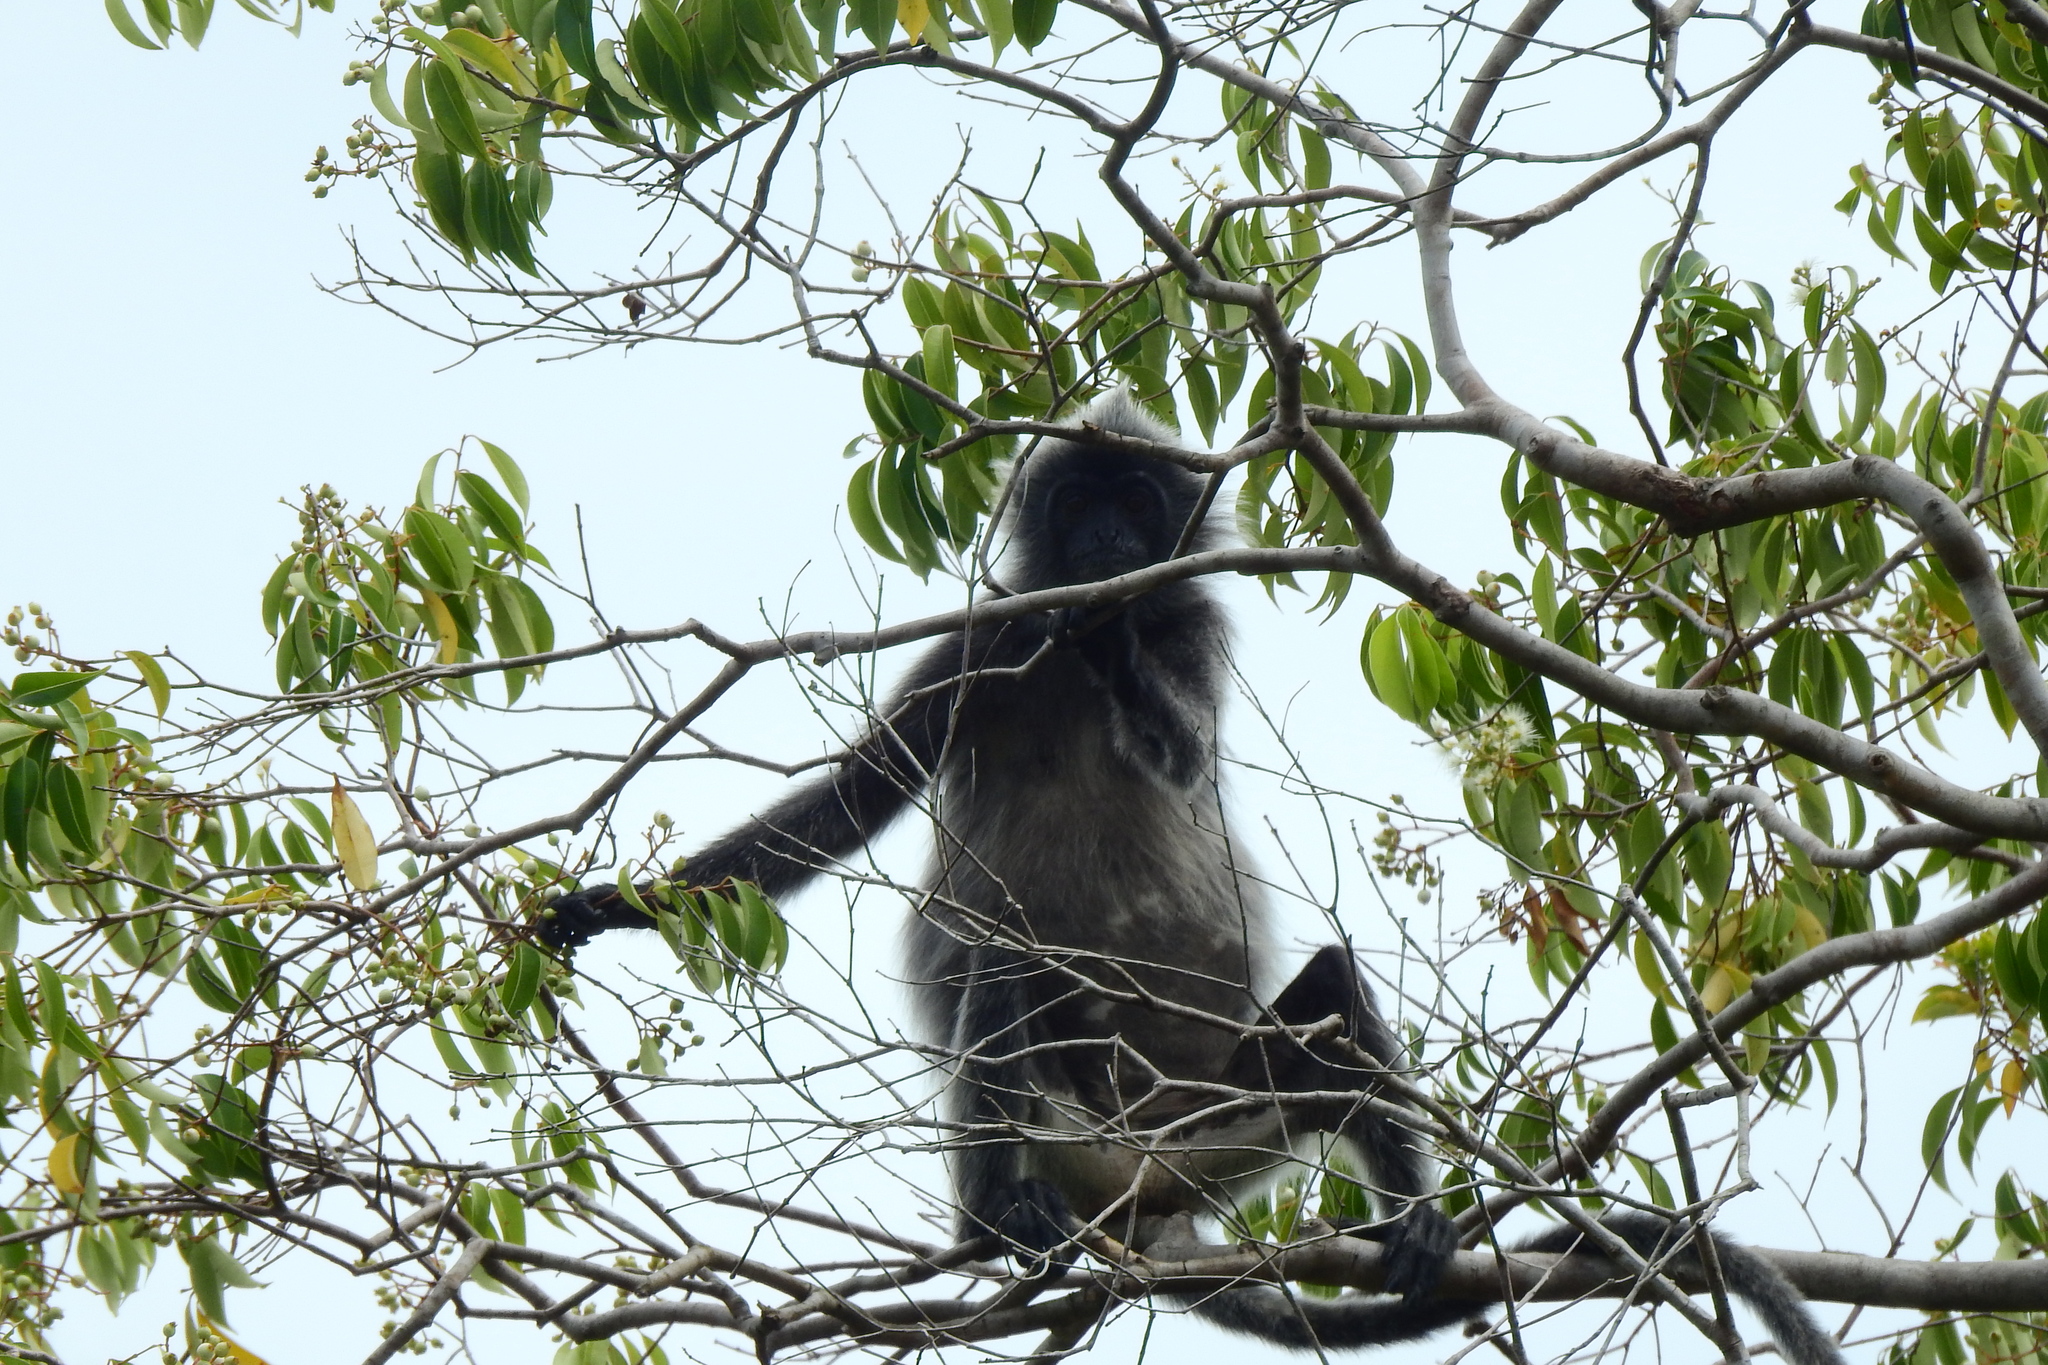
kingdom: Animalia
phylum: Chordata
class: Mammalia
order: Primates
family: Cercopithecidae
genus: Trachypithecus
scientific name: Trachypithecus cristatus
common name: Silvery lutung
